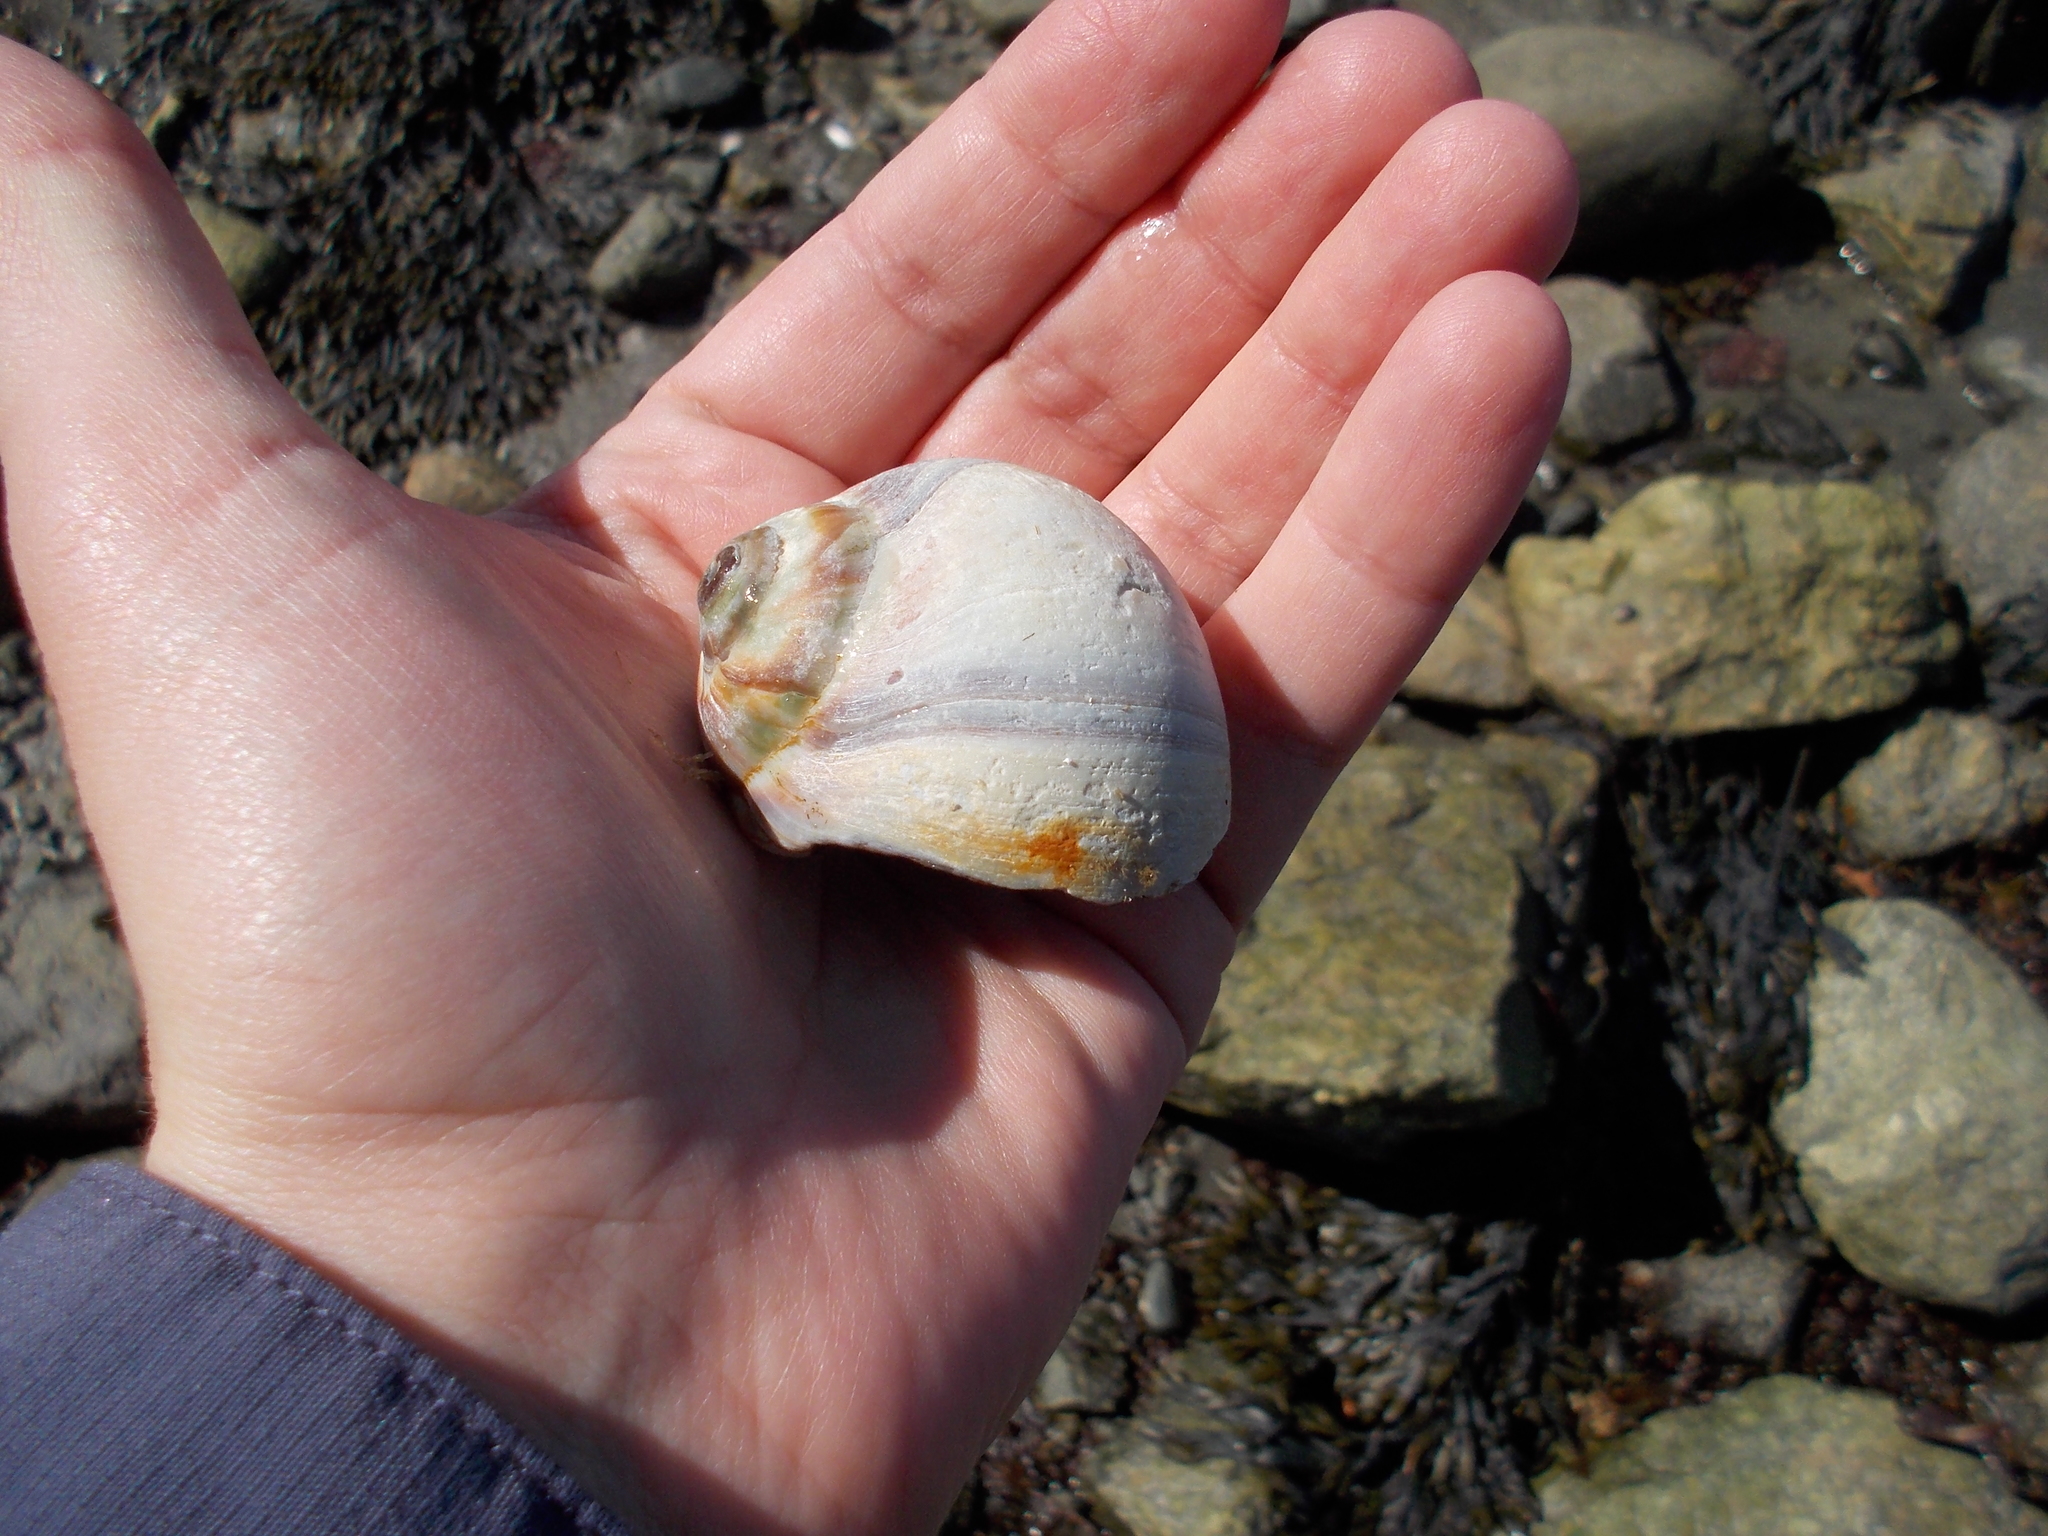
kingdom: Animalia
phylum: Mollusca
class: Gastropoda
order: Littorinimorpha
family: Naticidae
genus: Euspira
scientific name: Euspira heros
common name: Common northern moonsnail
